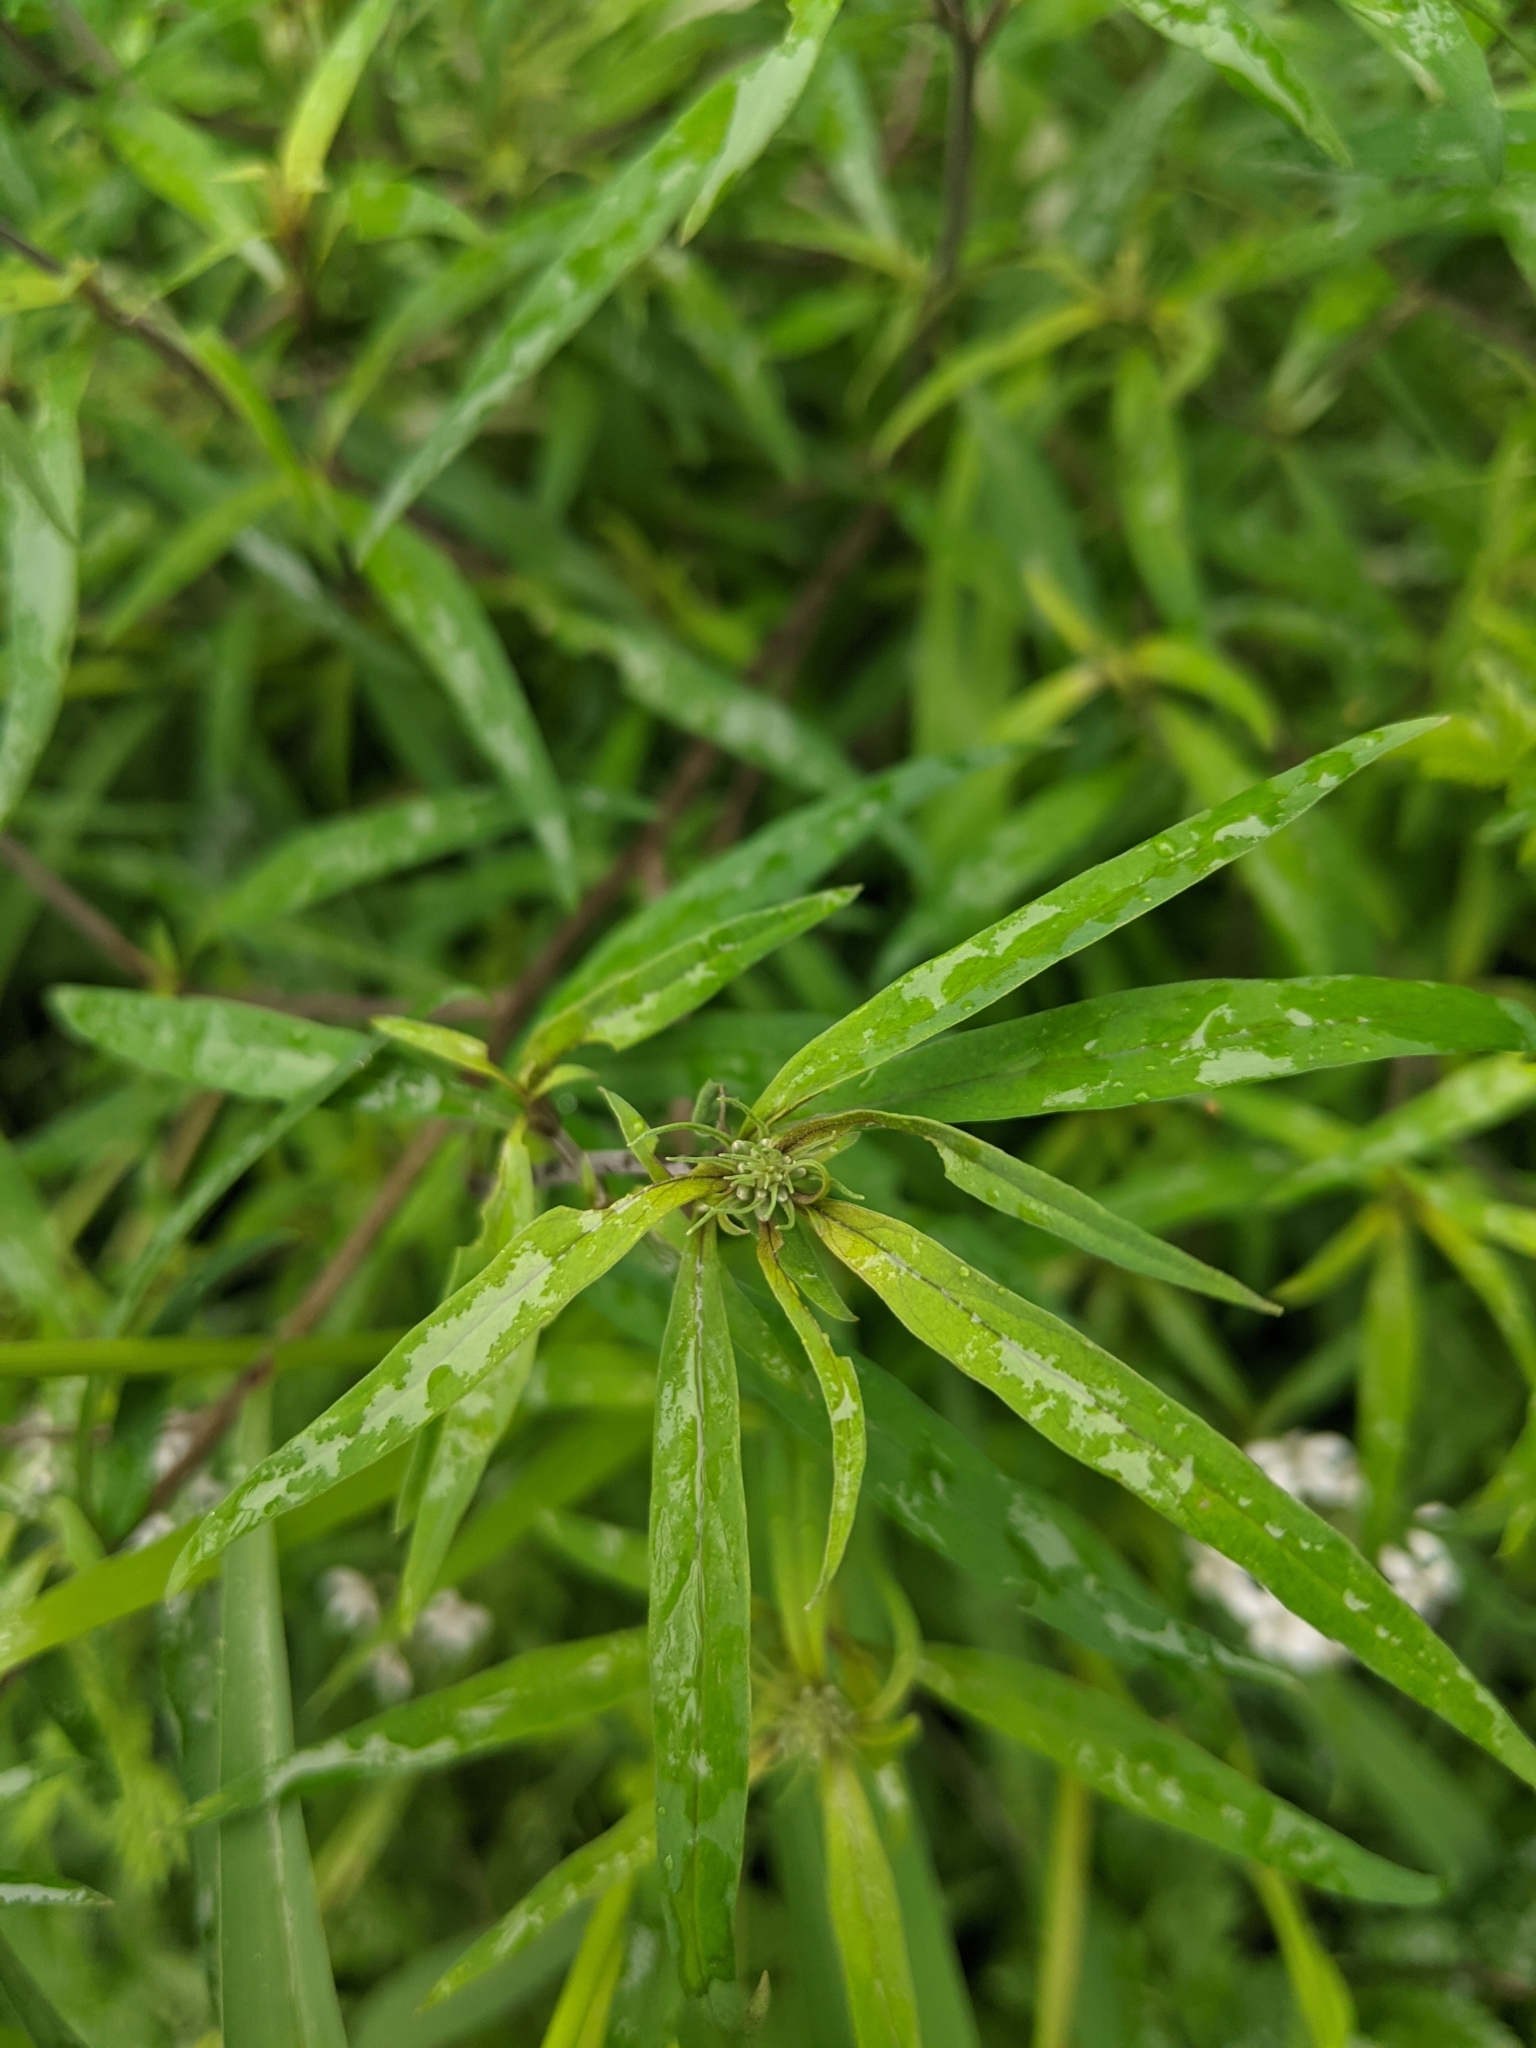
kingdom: Plantae
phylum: Tracheophyta
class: Magnoliopsida
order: Ericales
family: Primulaceae
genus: Lysimachia
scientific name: Lysimachia pentapetala
